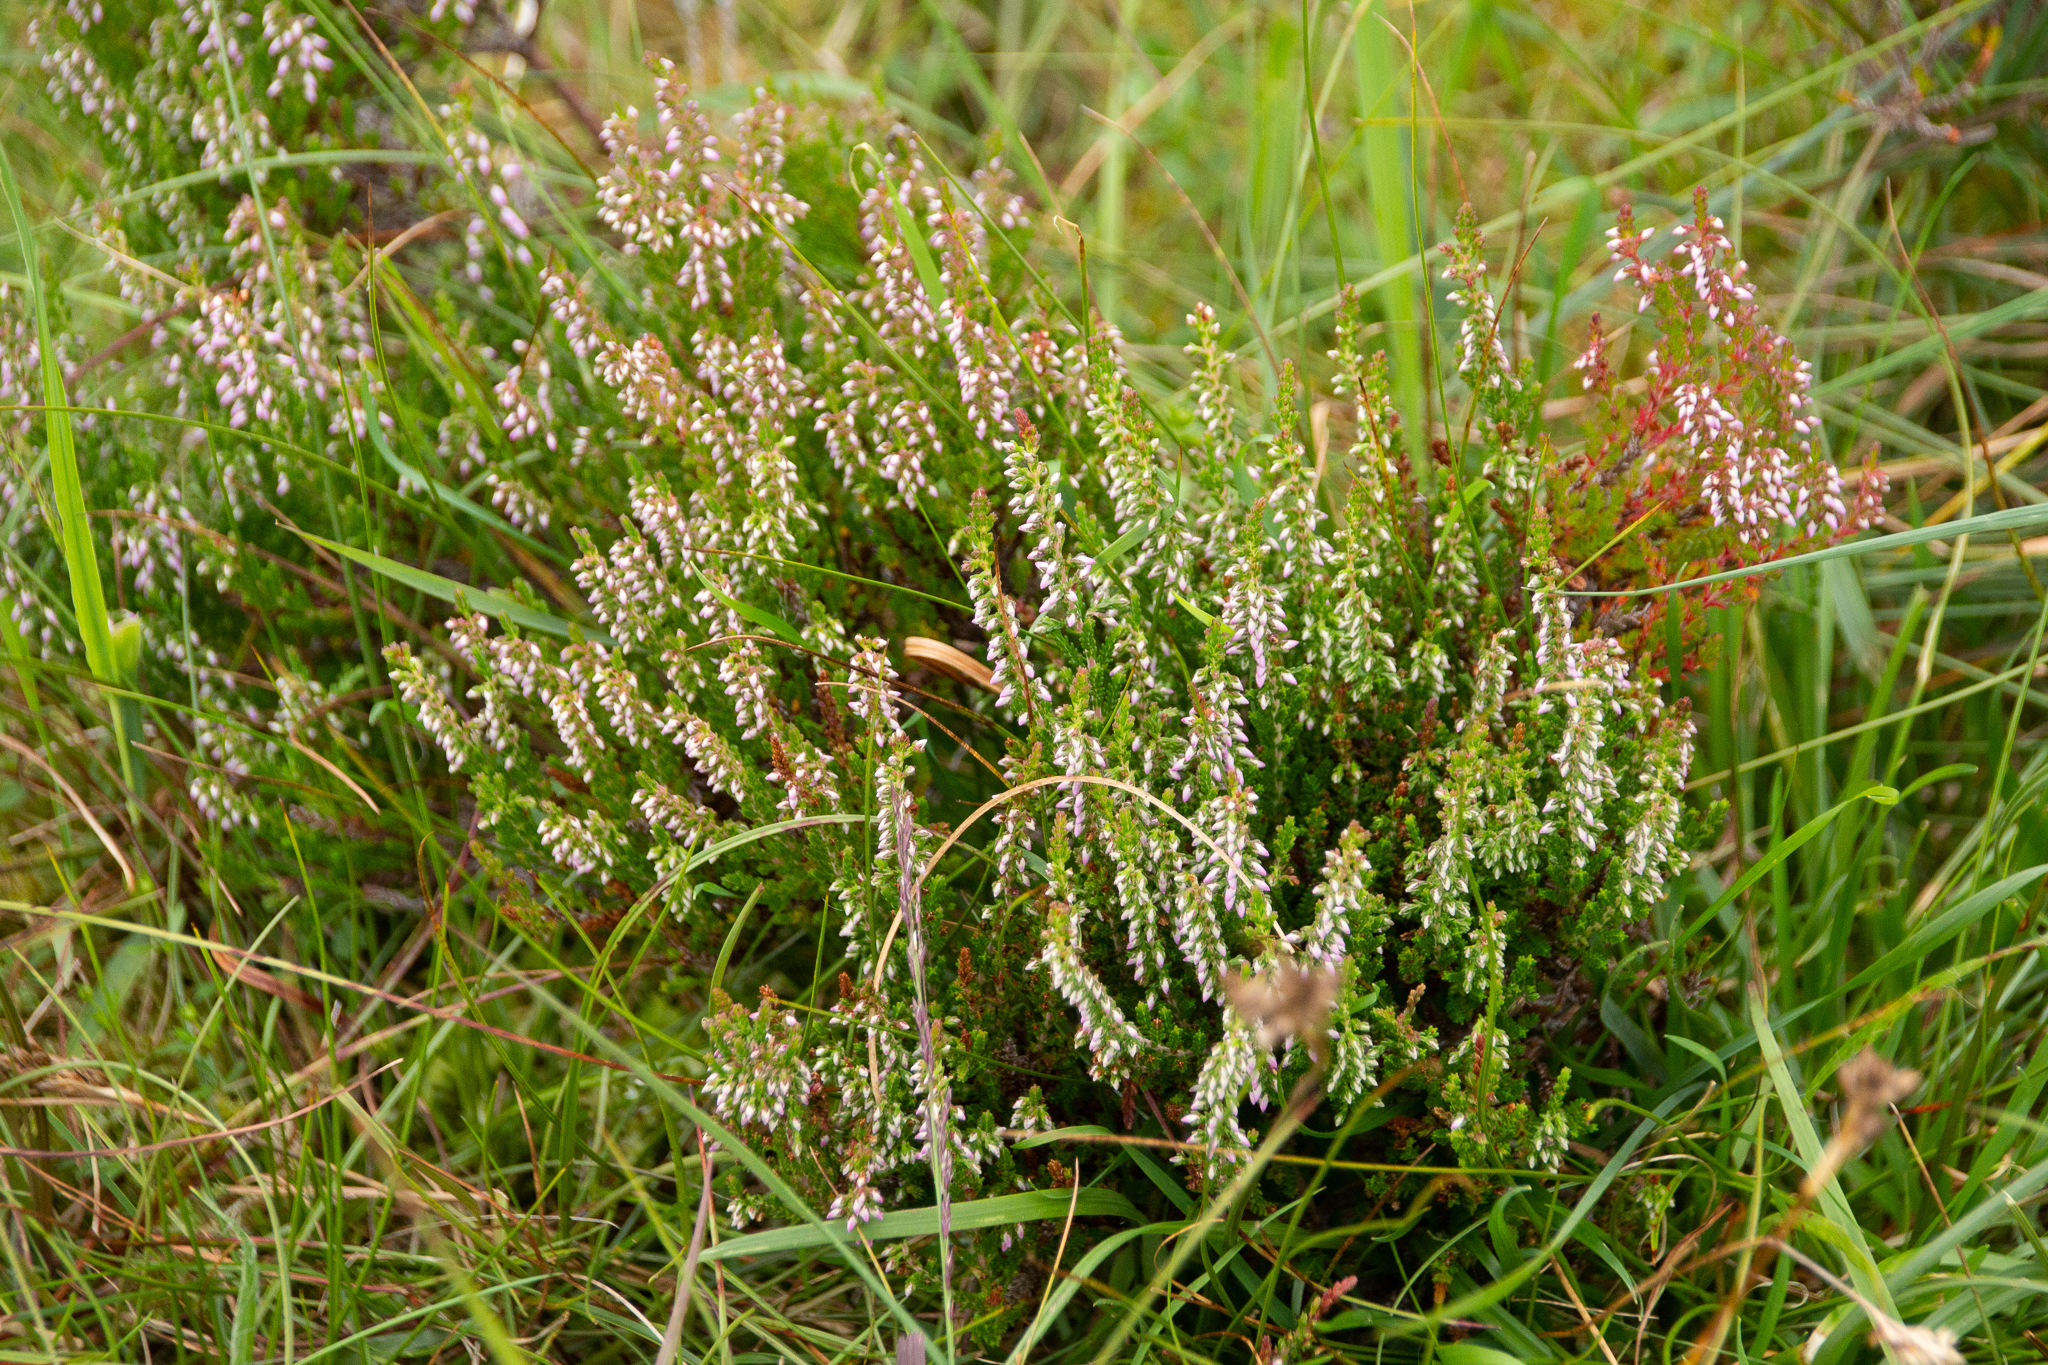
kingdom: Plantae
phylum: Tracheophyta
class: Magnoliopsida
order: Ericales
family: Ericaceae
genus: Calluna
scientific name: Calluna vulgaris
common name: Heather
